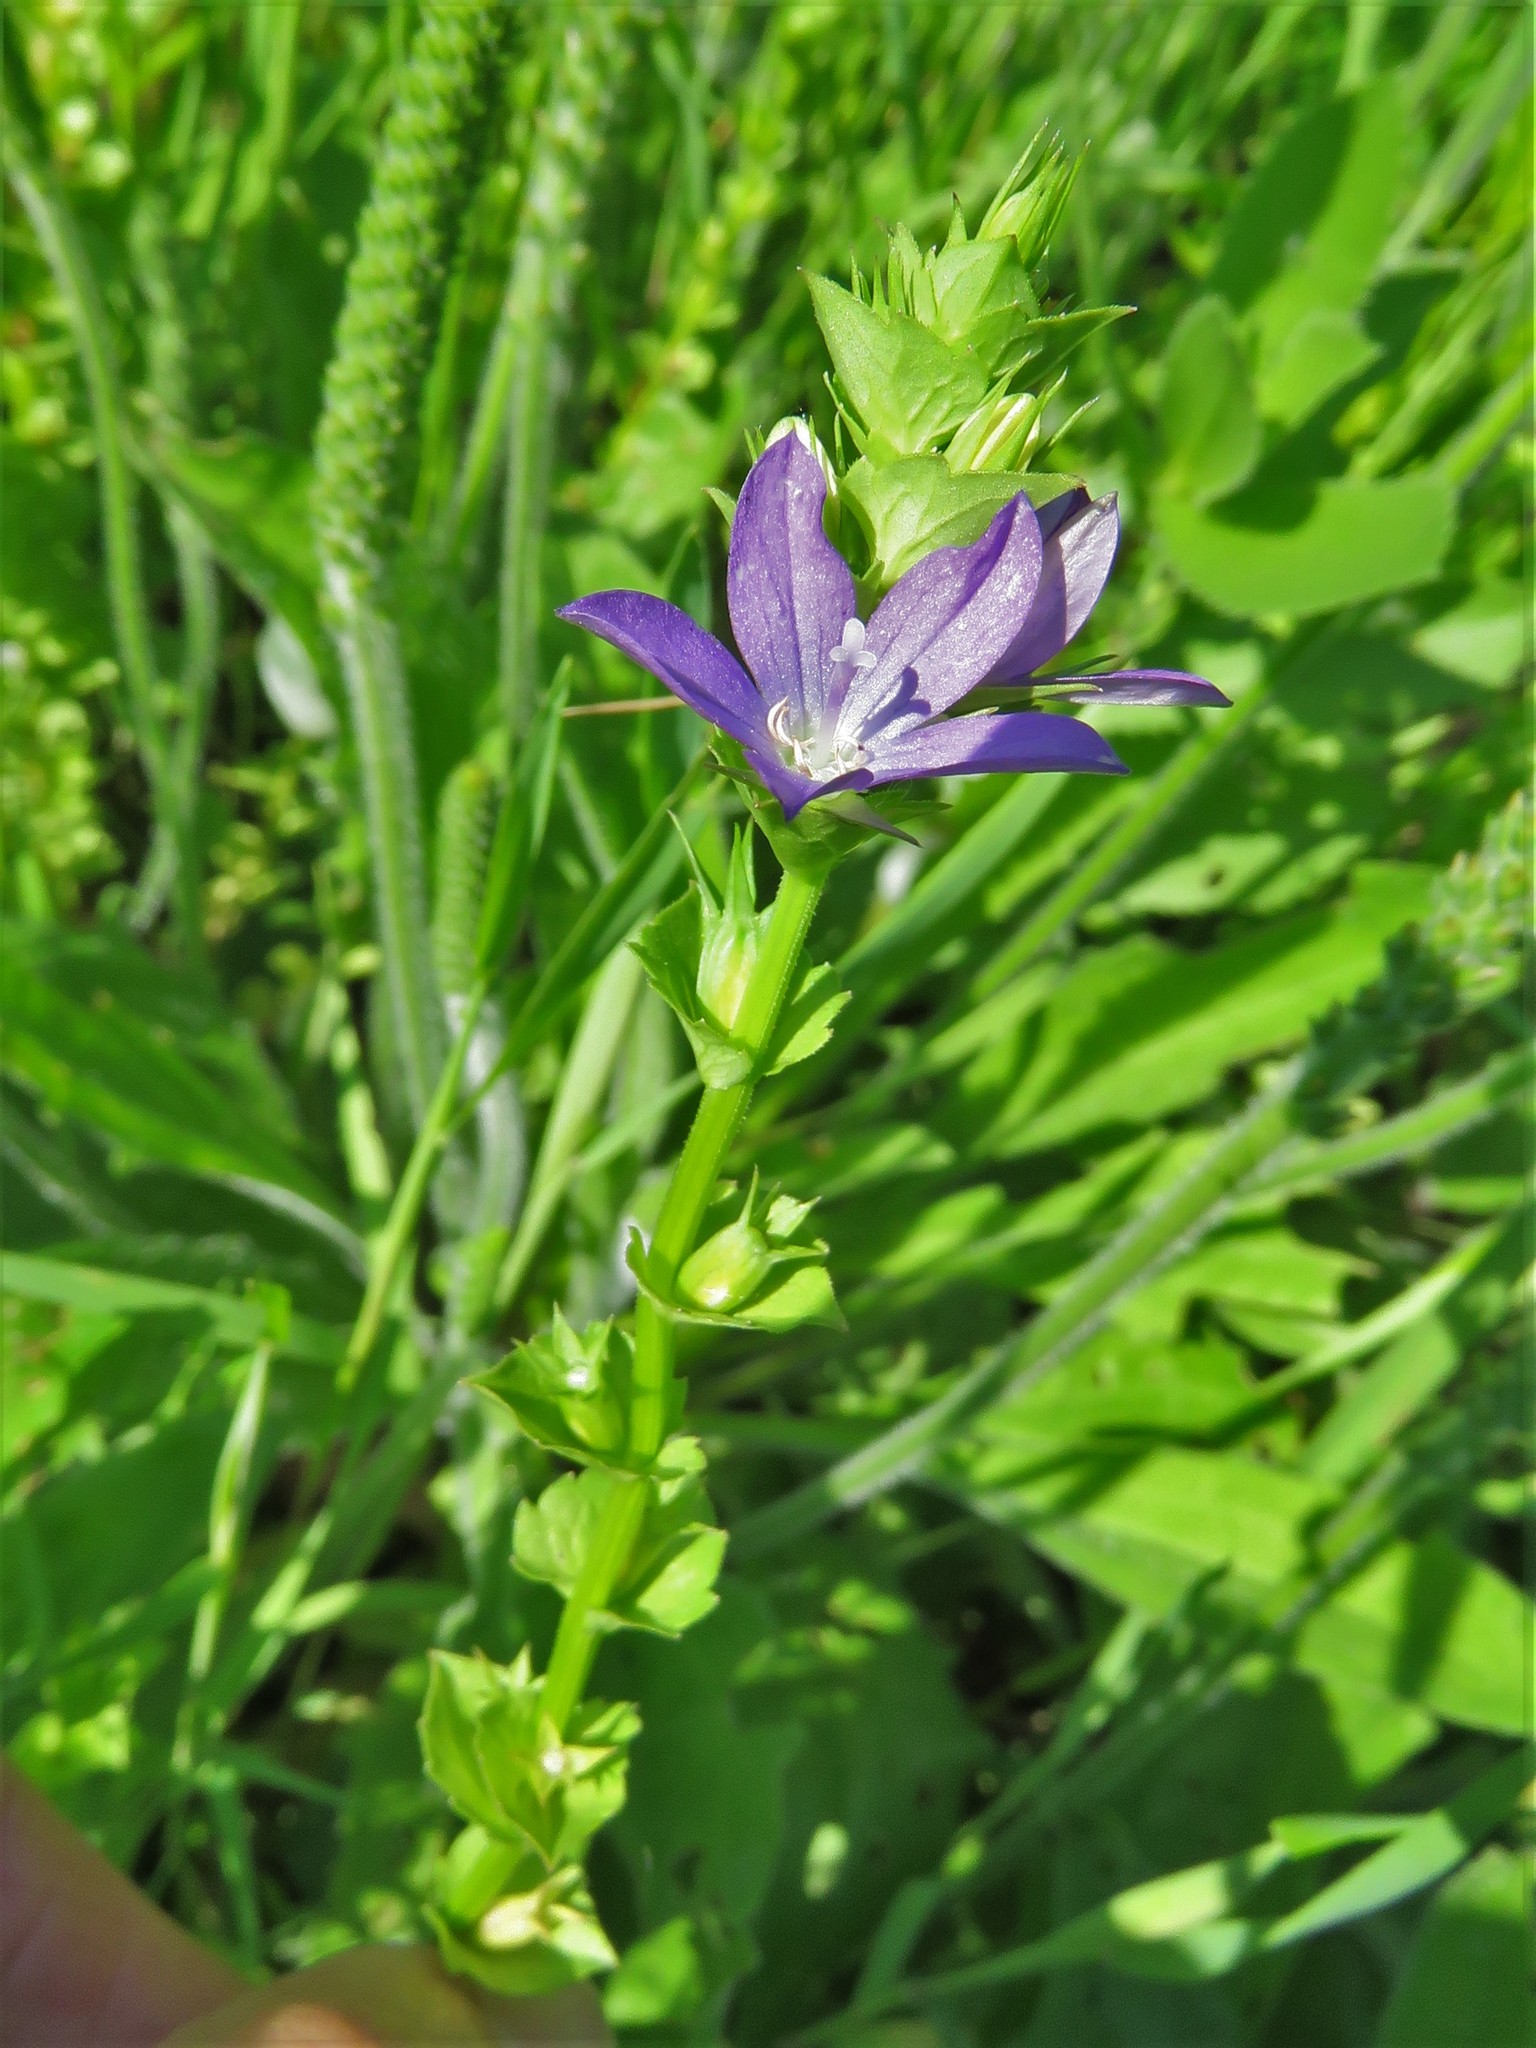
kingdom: Plantae
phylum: Tracheophyta
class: Magnoliopsida
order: Asterales
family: Campanulaceae
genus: Triodanis
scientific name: Triodanis perfoliata
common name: Clasping venus' looking-glass
